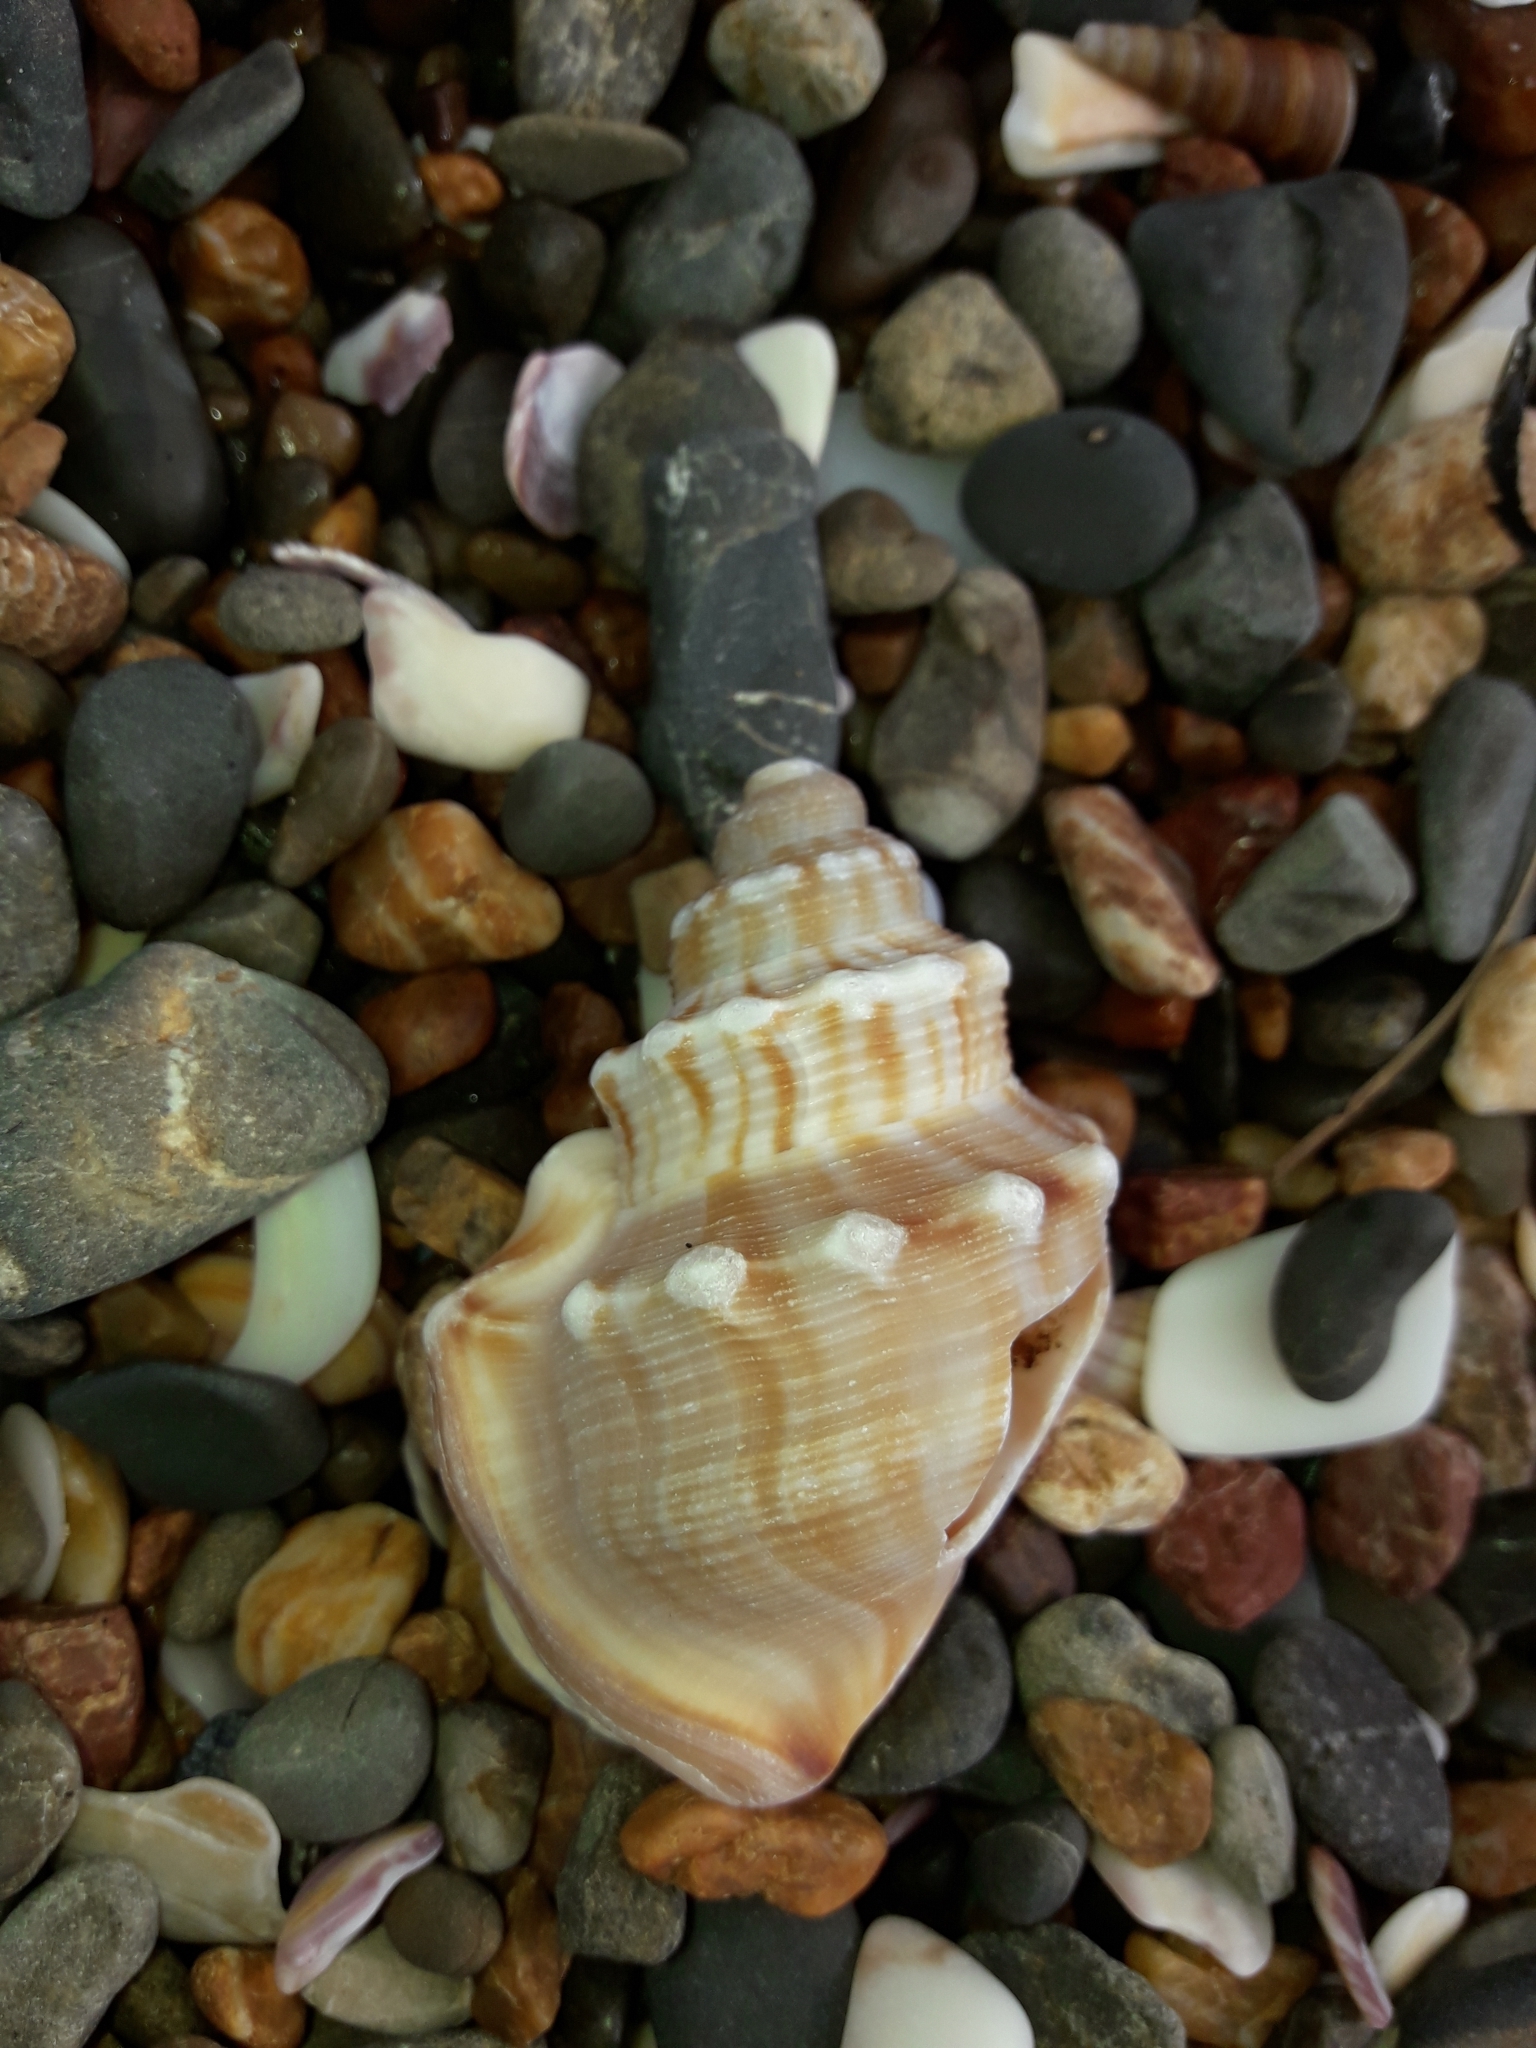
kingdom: Animalia
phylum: Mollusca
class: Gastropoda
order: Littorinimorpha
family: Struthiolariidae
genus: Struthiolaria
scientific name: Struthiolaria papulosa
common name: Large ostrich foot
